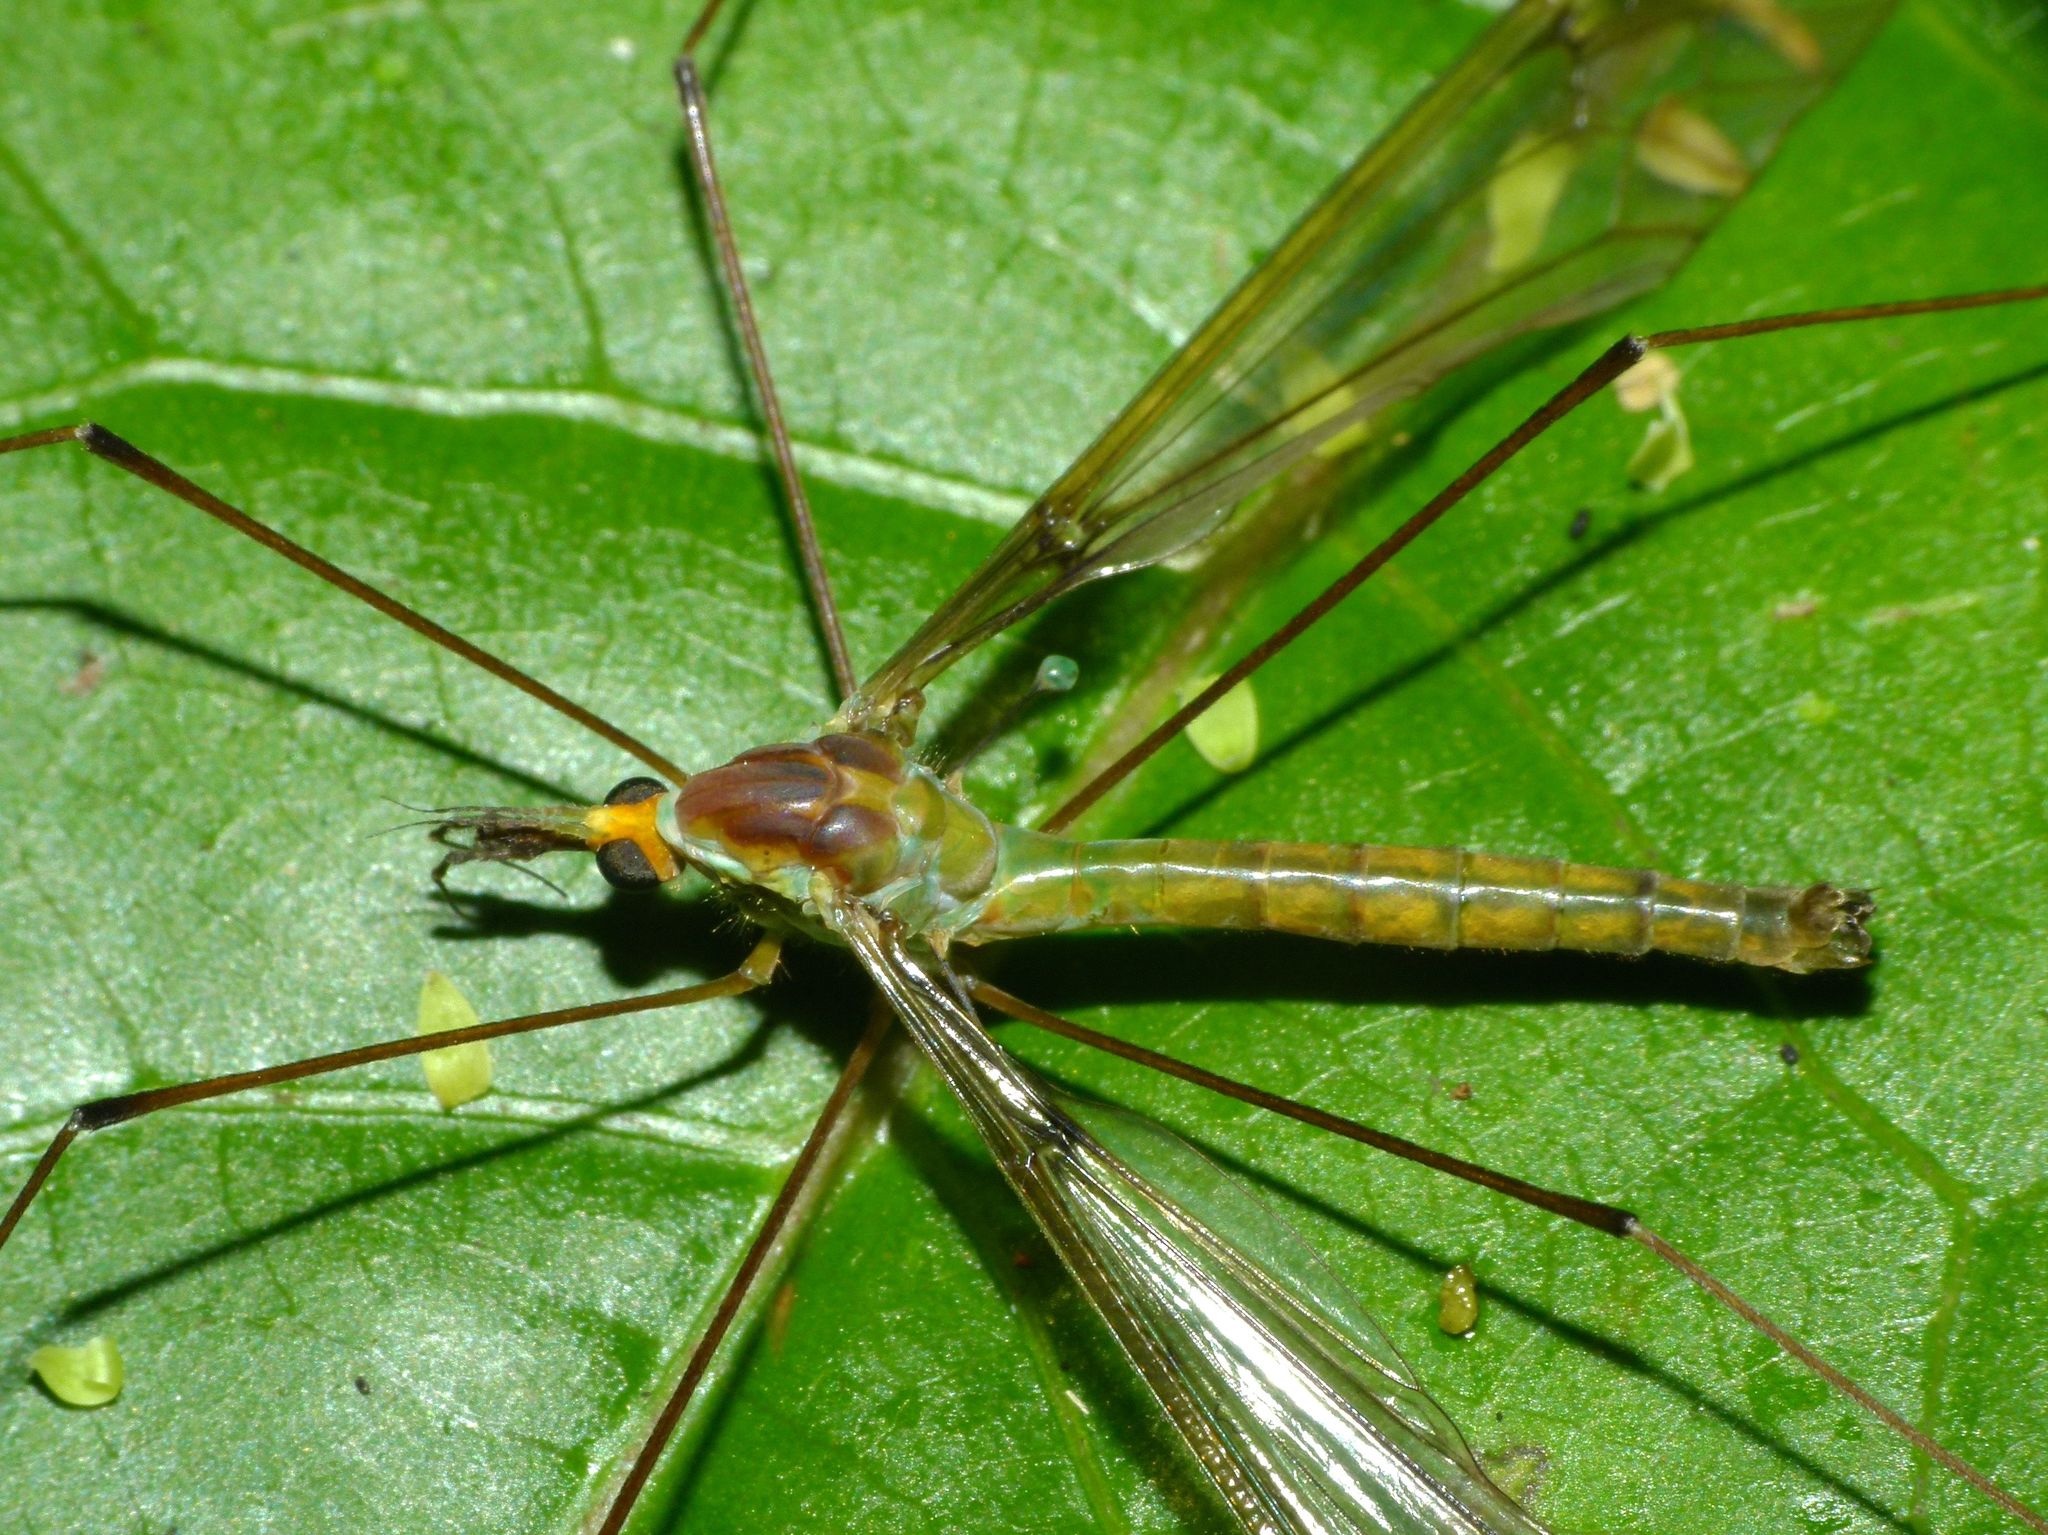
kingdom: Animalia
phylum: Arthropoda
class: Insecta
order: Diptera
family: Tipulidae
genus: Leptotarsus
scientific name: Leptotarsus albistigma
